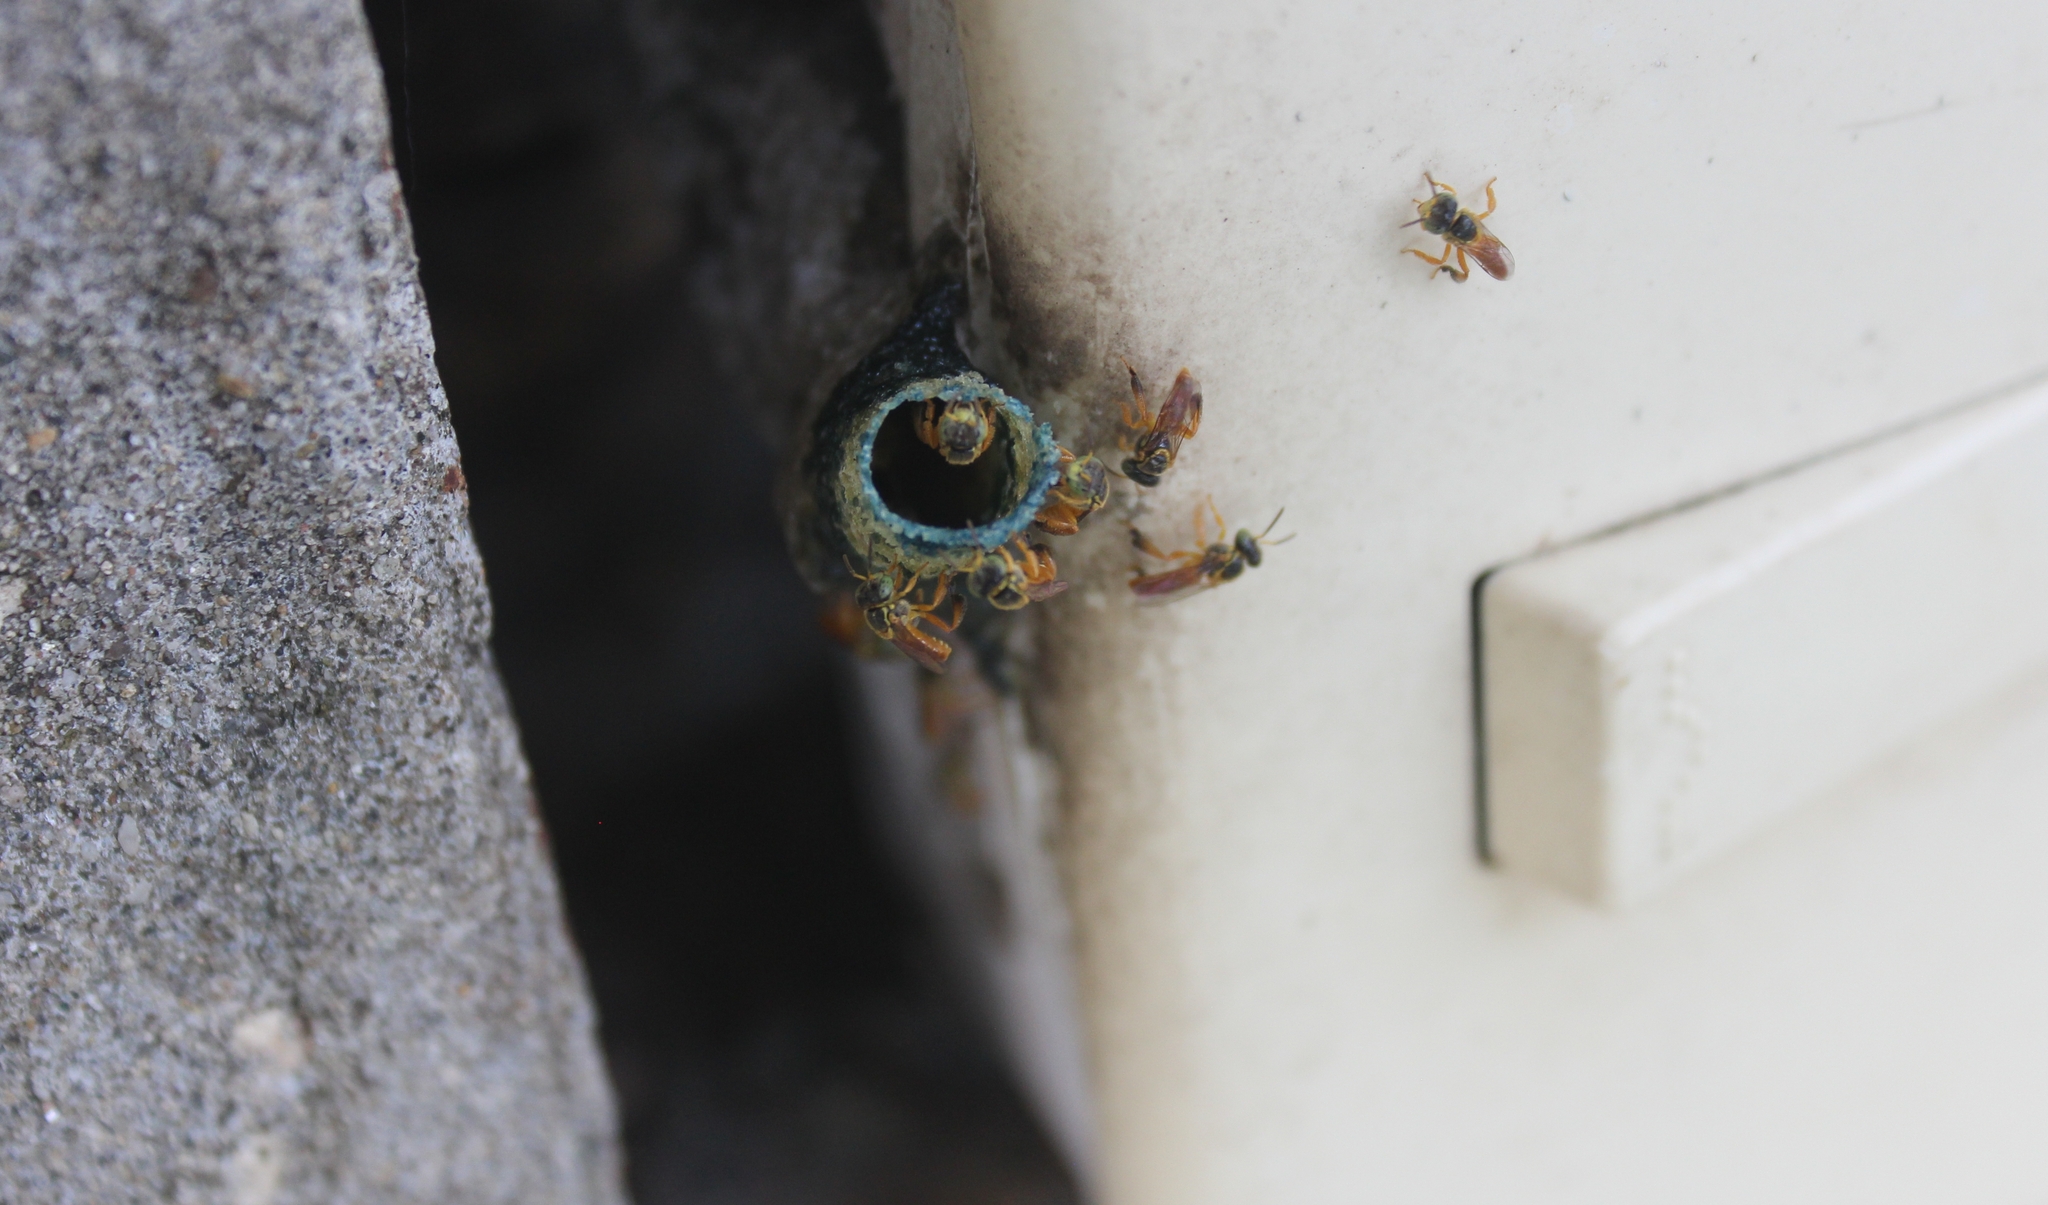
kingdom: Animalia
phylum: Arthropoda
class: Insecta
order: Hymenoptera
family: Apidae
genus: Tetragonisca
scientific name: Tetragonisca angustula
